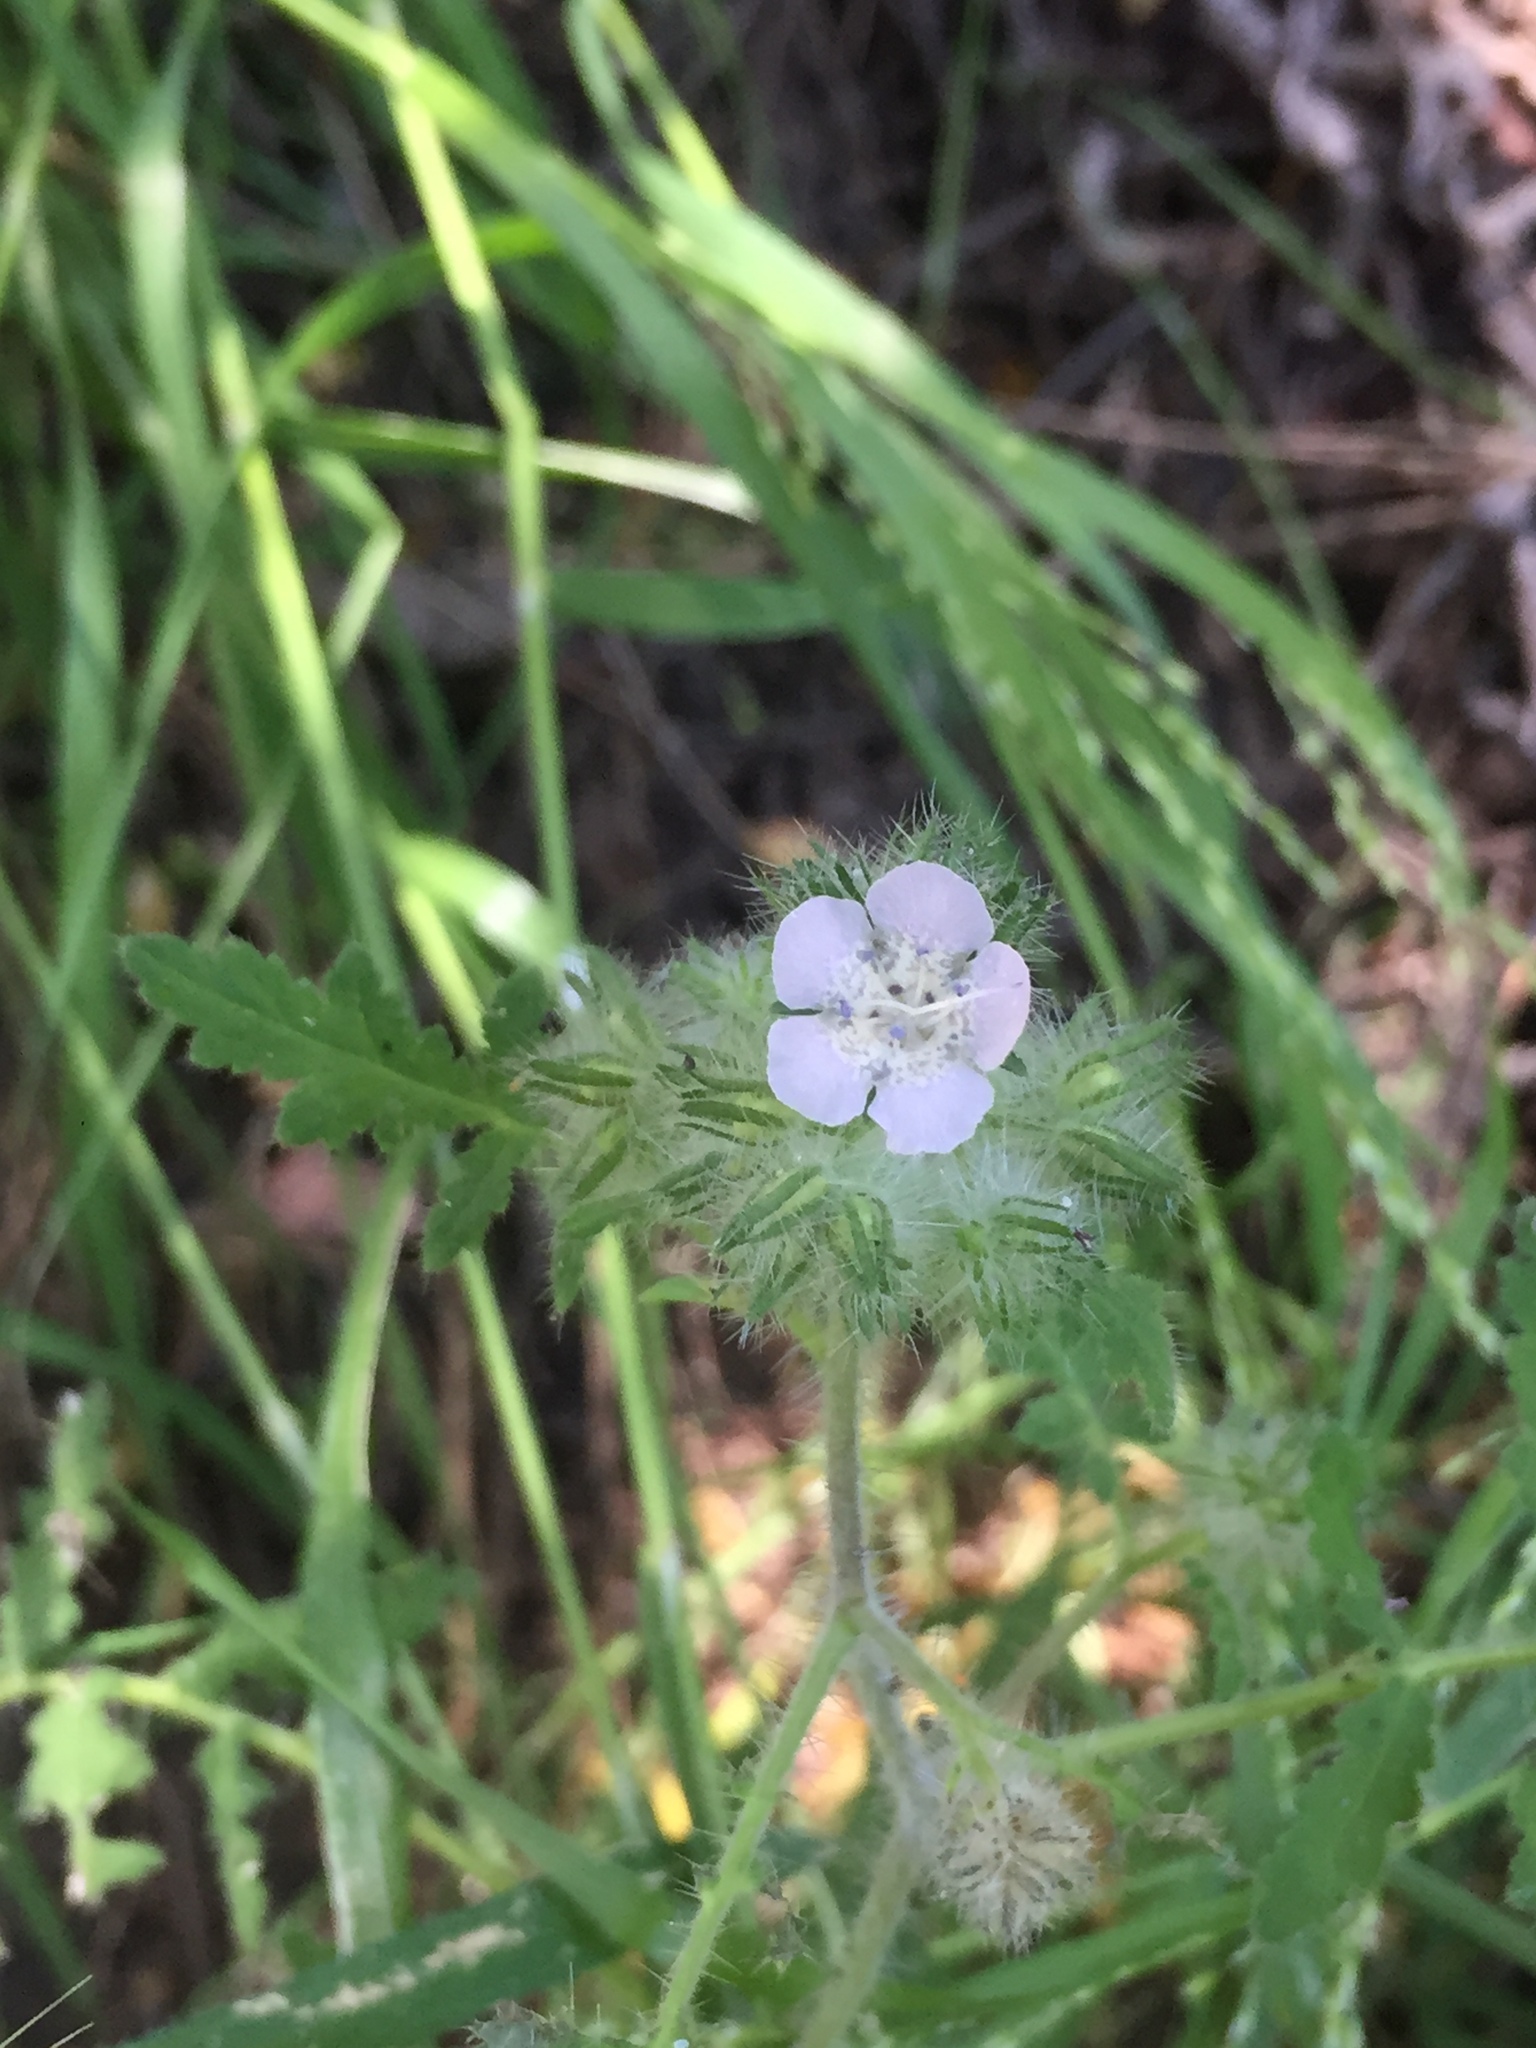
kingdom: Plantae
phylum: Tracheophyta
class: Magnoliopsida
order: Boraginales
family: Hydrophyllaceae
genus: Phacelia
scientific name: Phacelia cicutaria
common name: Caterpillar phacelia
